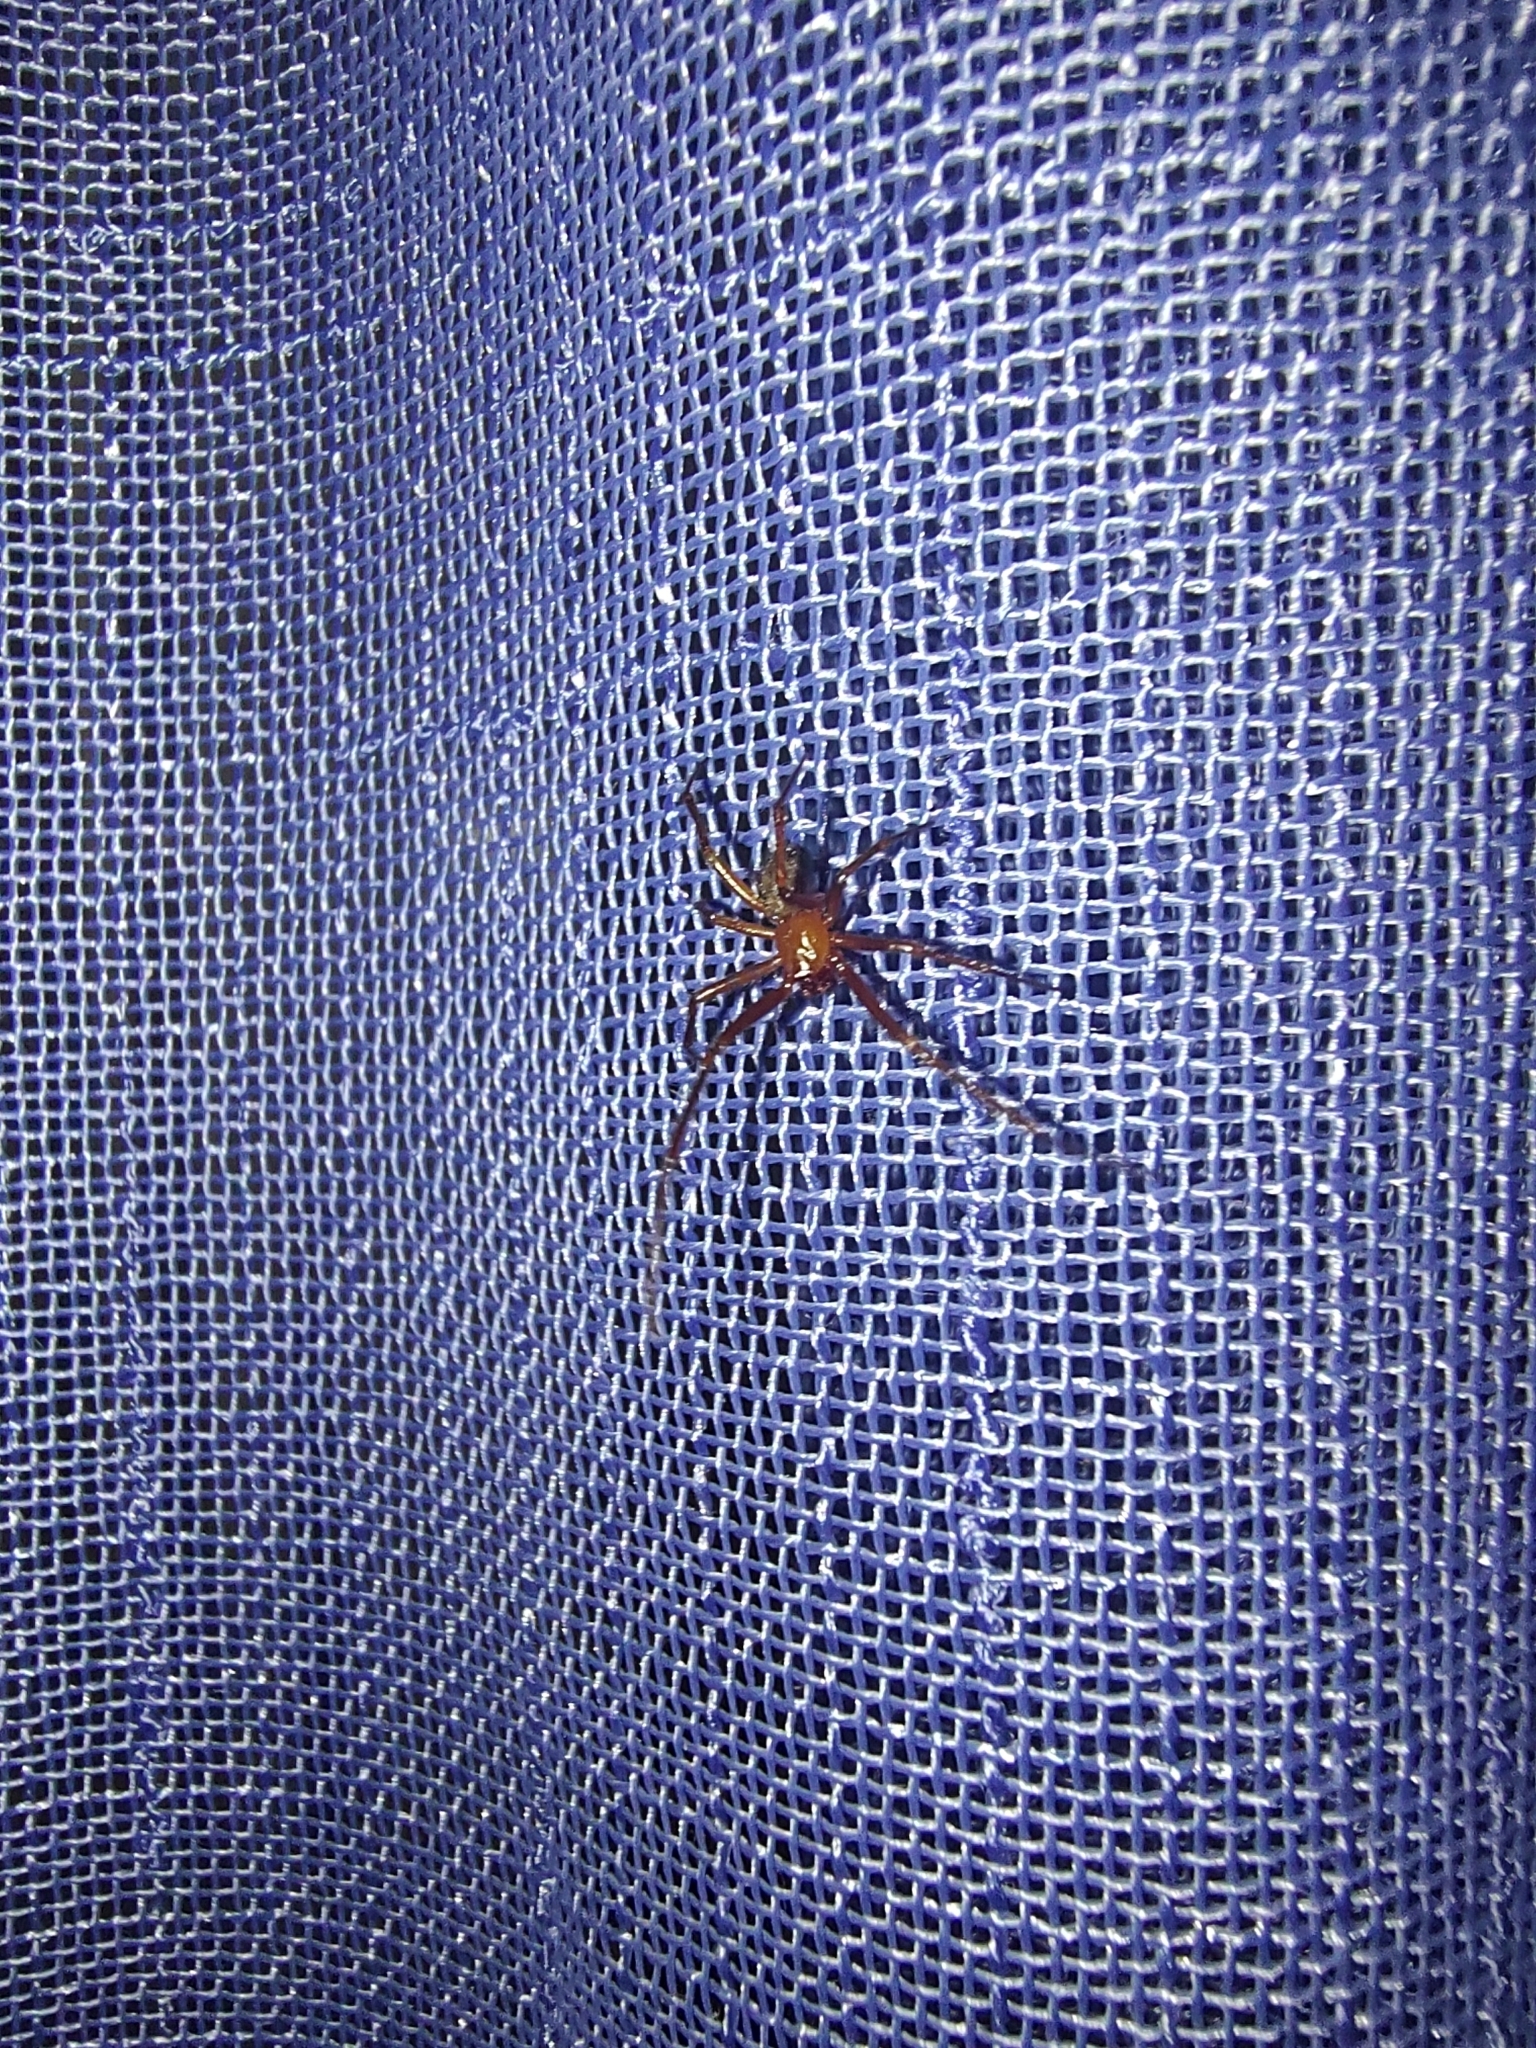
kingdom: Animalia
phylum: Arthropoda
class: Arachnida
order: Araneae
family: Theridiidae
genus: Nesticodes
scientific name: Nesticodes rufipes
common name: Cobweb spiders
